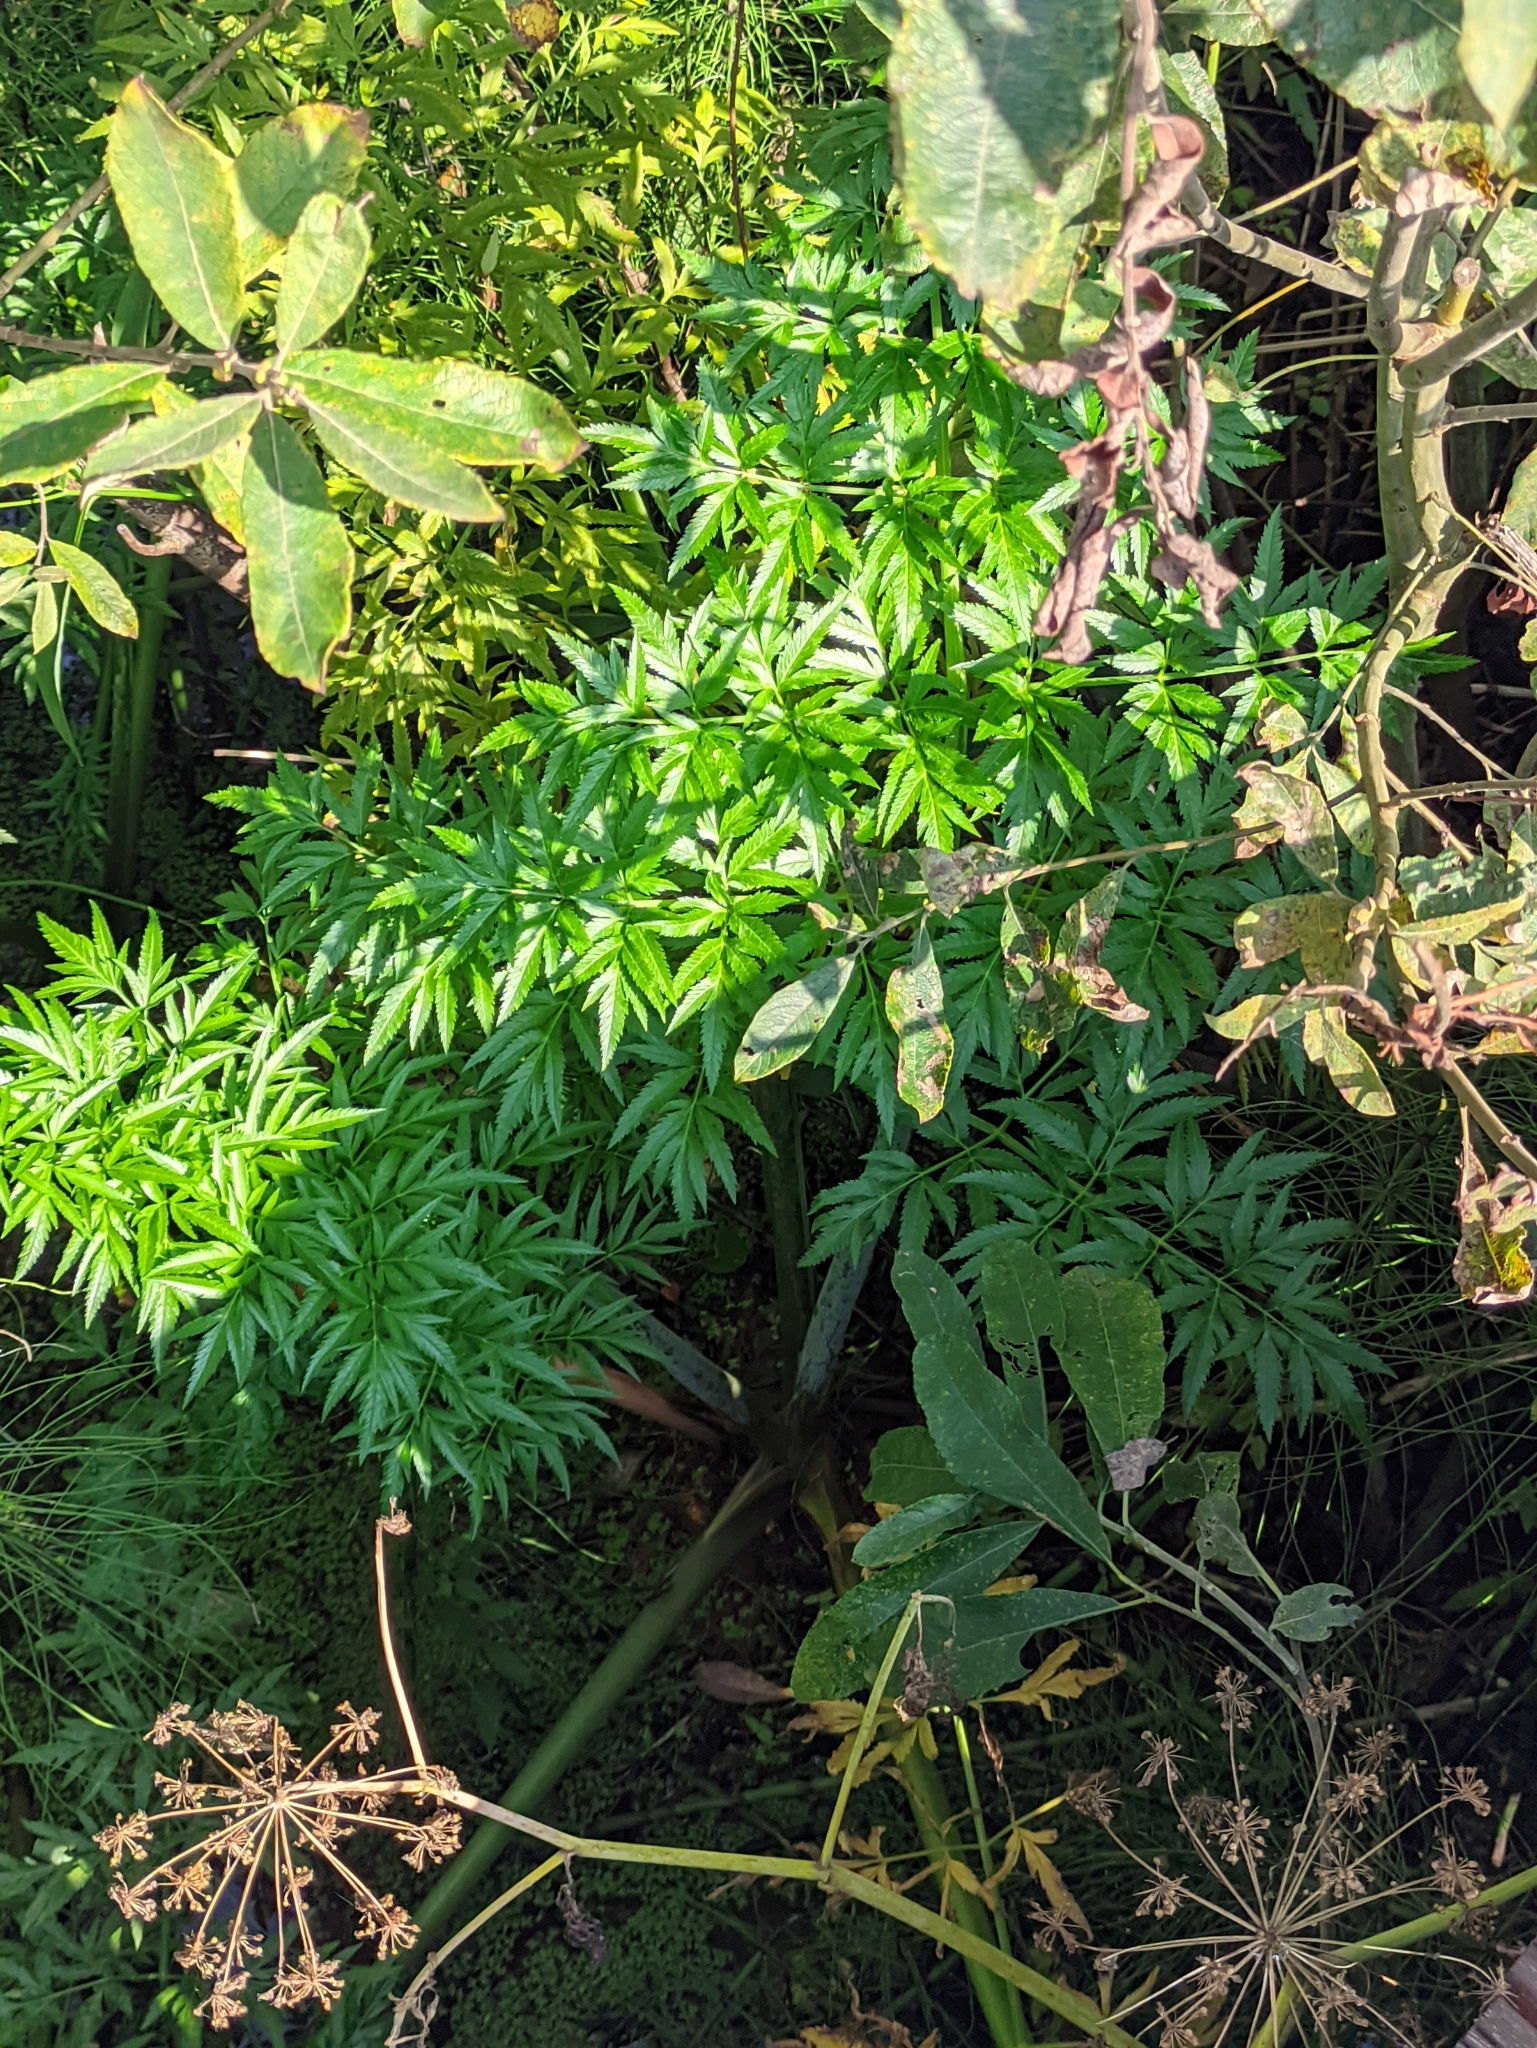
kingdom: Plantae
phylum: Tracheophyta
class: Magnoliopsida
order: Apiales
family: Apiaceae
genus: Cicuta
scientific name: Cicuta virosa
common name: Cowbane
